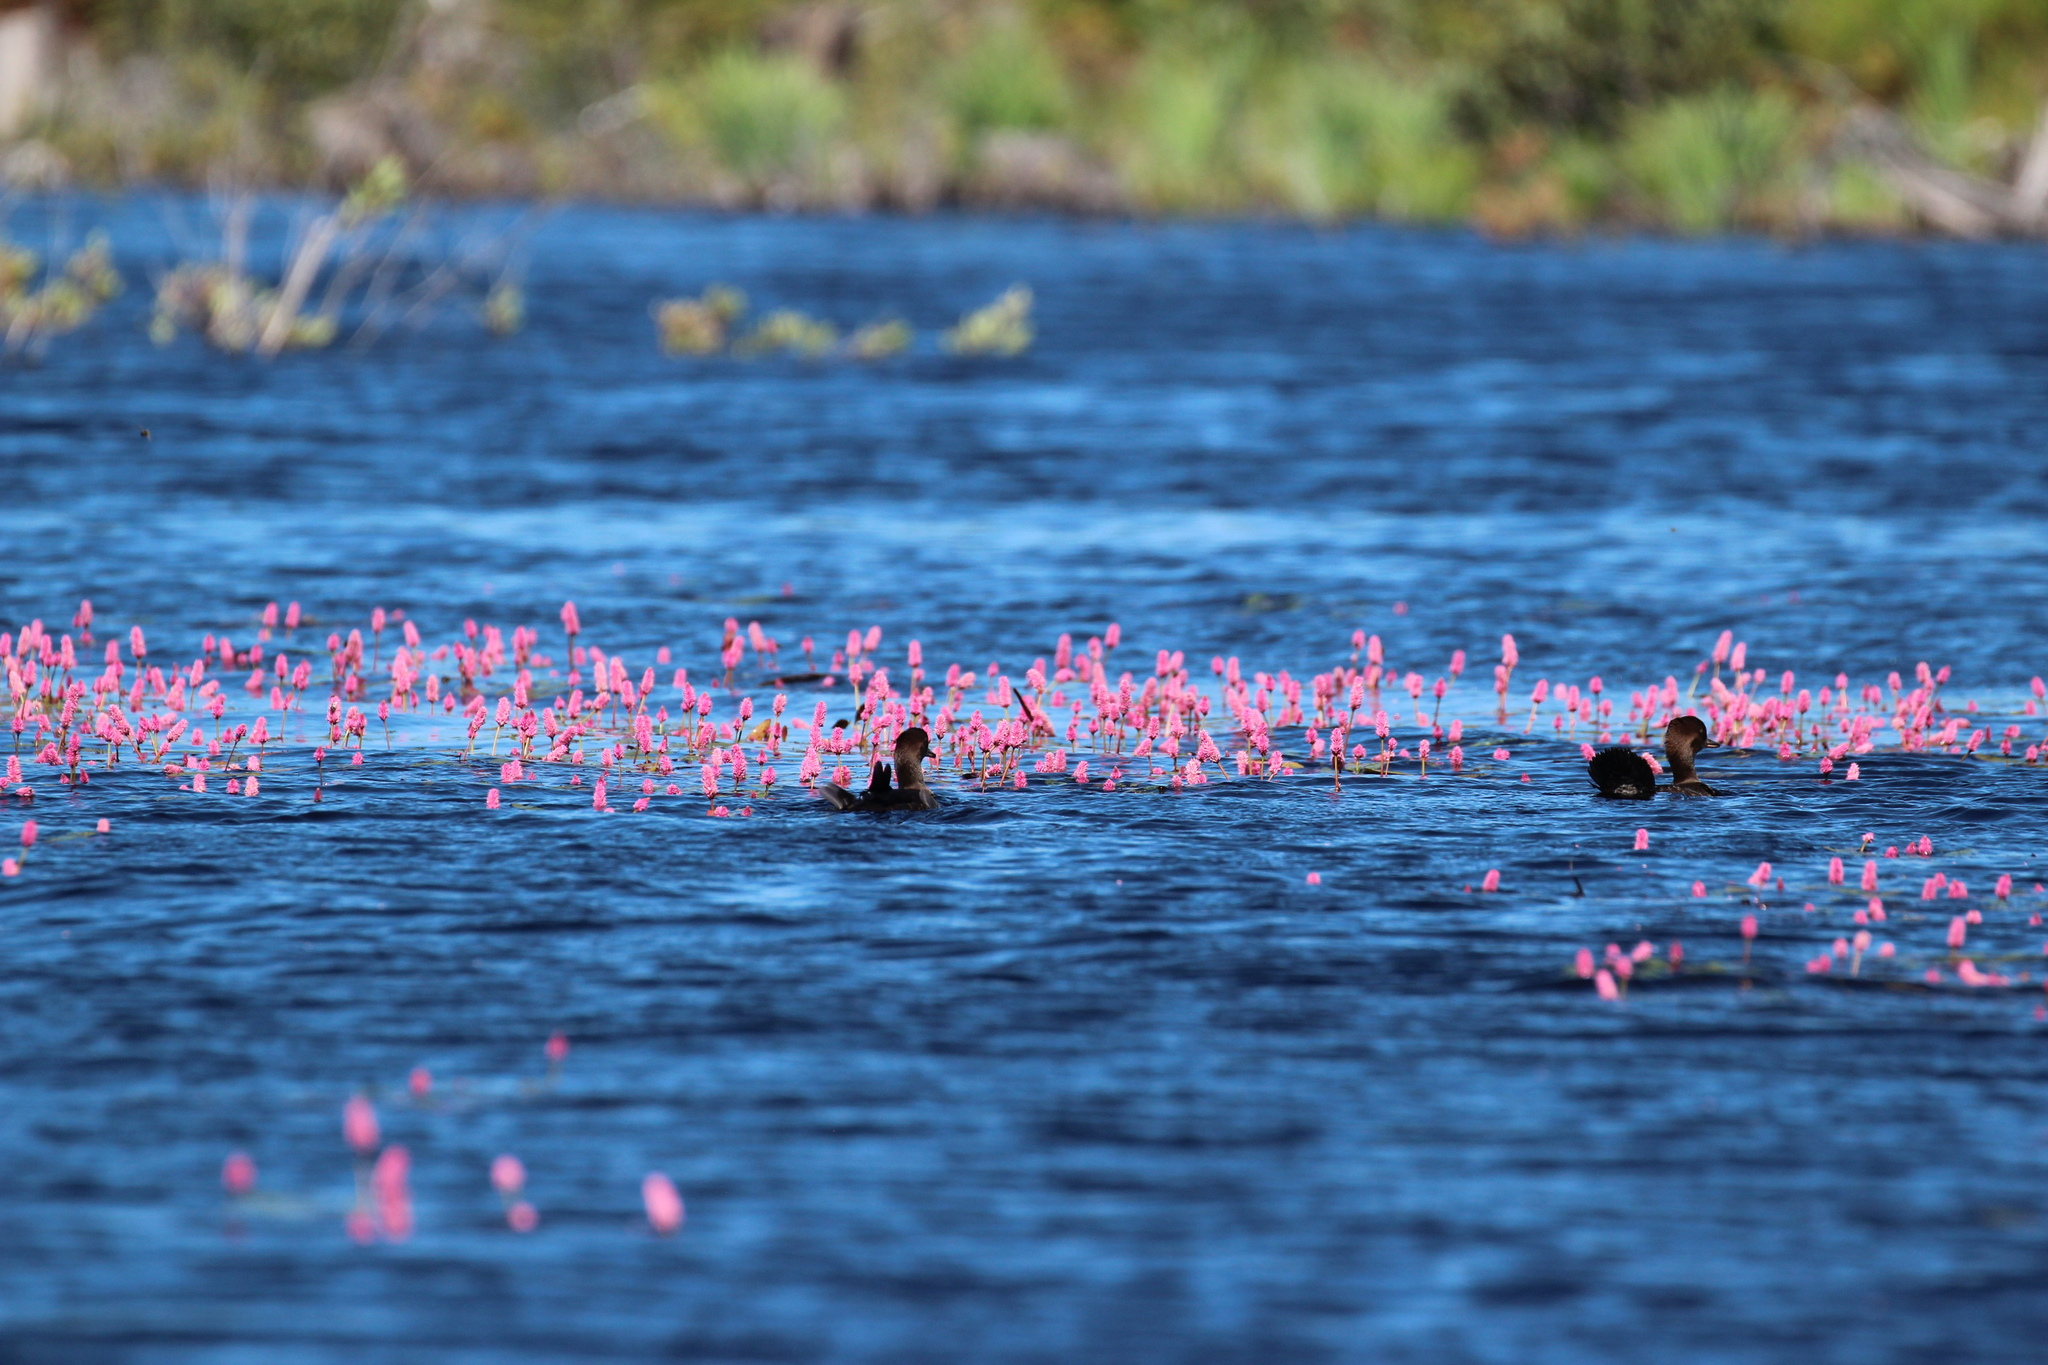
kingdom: Animalia
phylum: Chordata
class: Aves
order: Anseriformes
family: Anatidae
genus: Lophodytes
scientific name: Lophodytes cucullatus
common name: Hooded merganser
